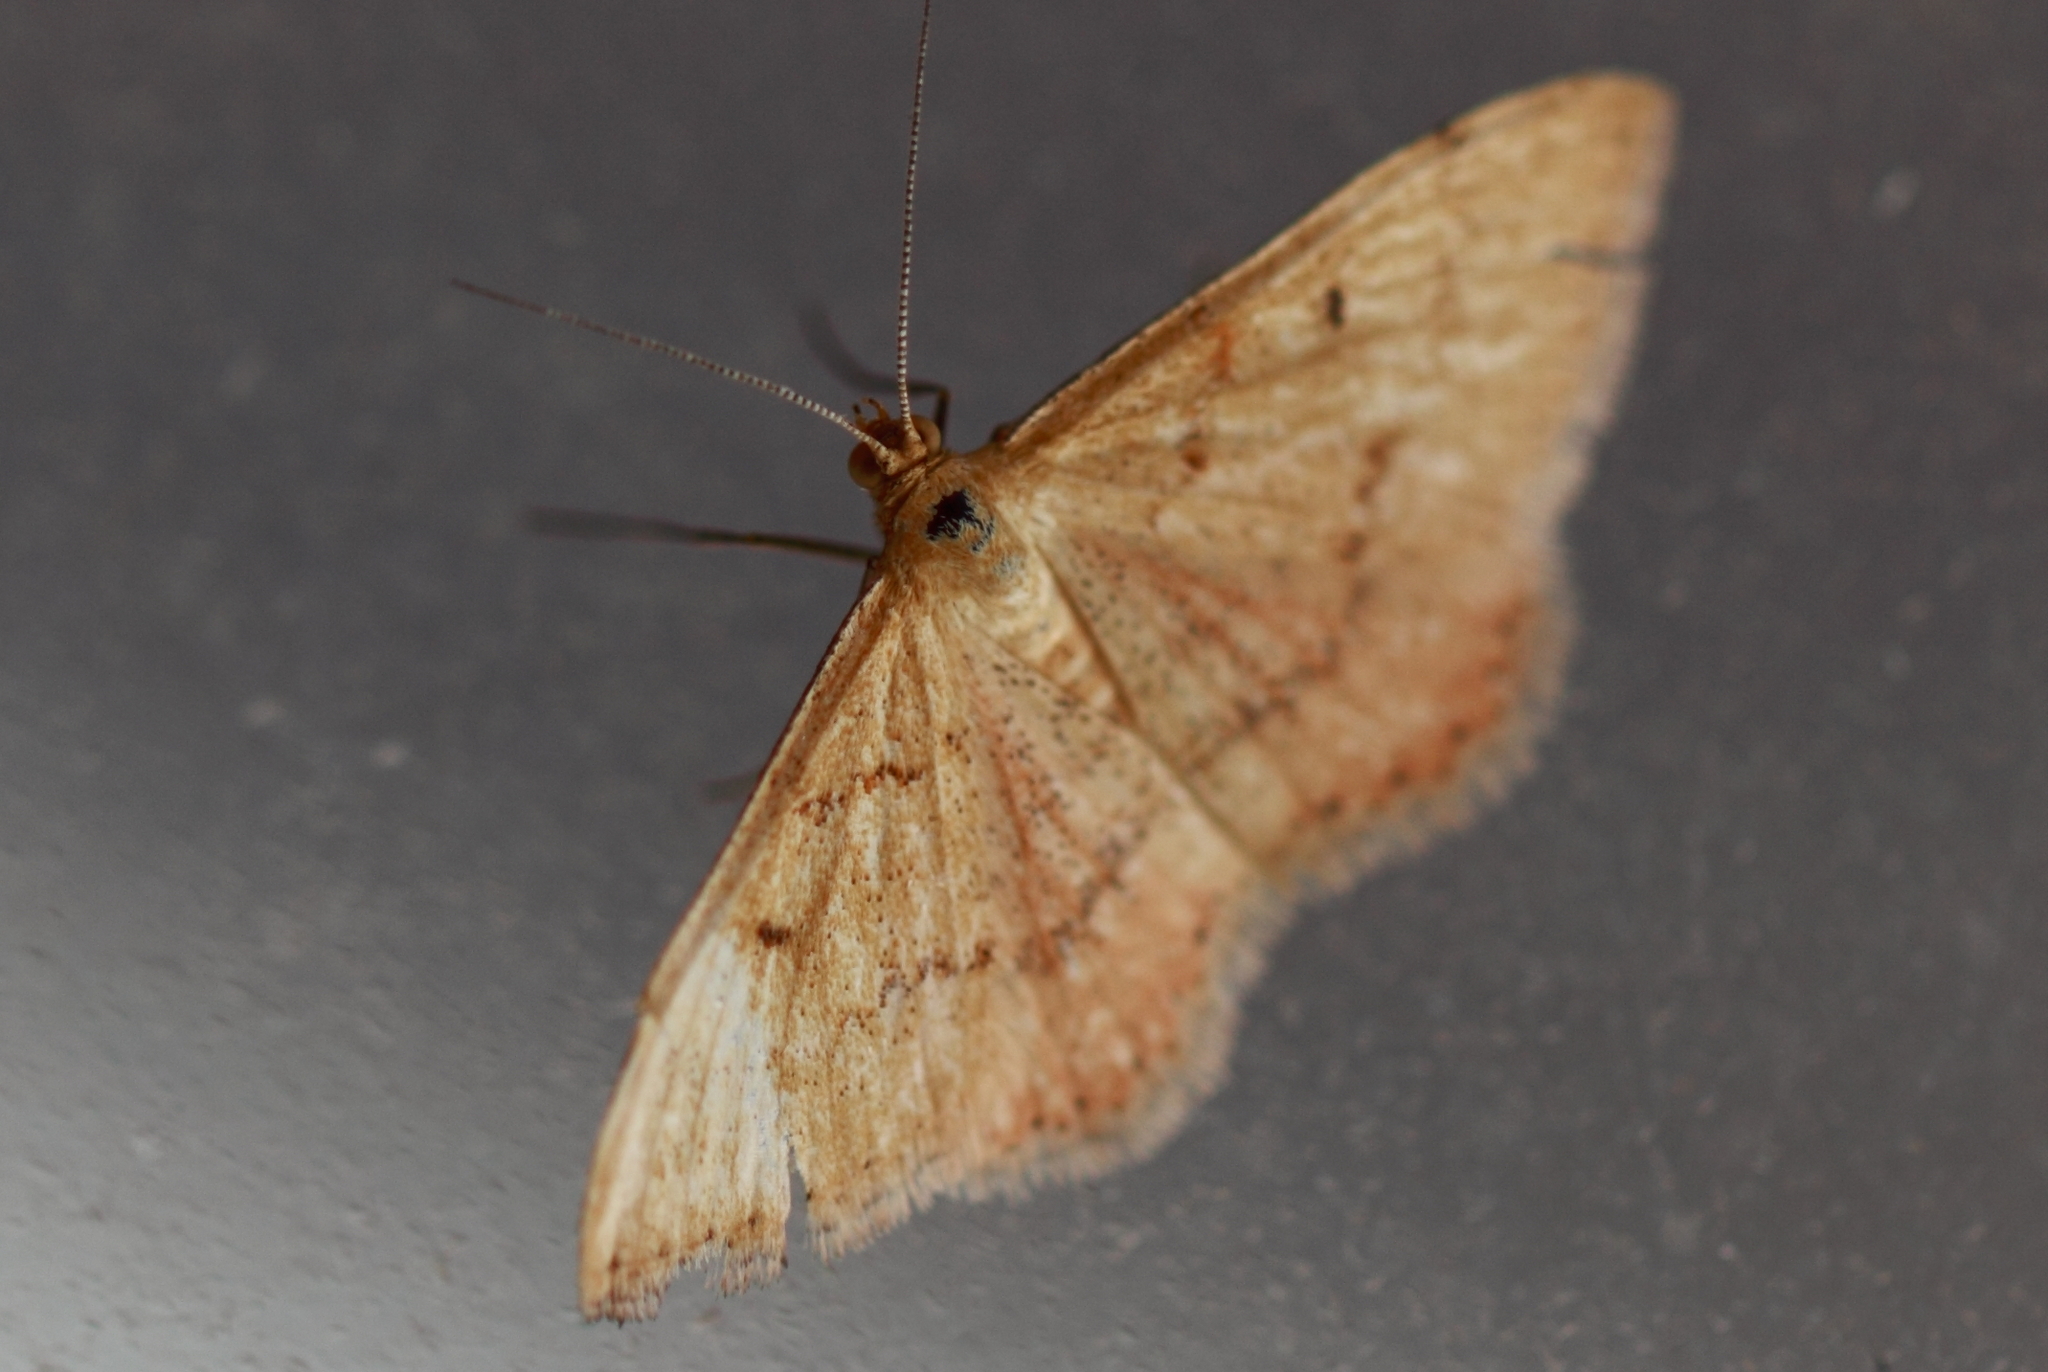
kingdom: Animalia
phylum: Arthropoda
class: Insecta
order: Lepidoptera
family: Geometridae
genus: Scopula
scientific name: Scopula rubraria
